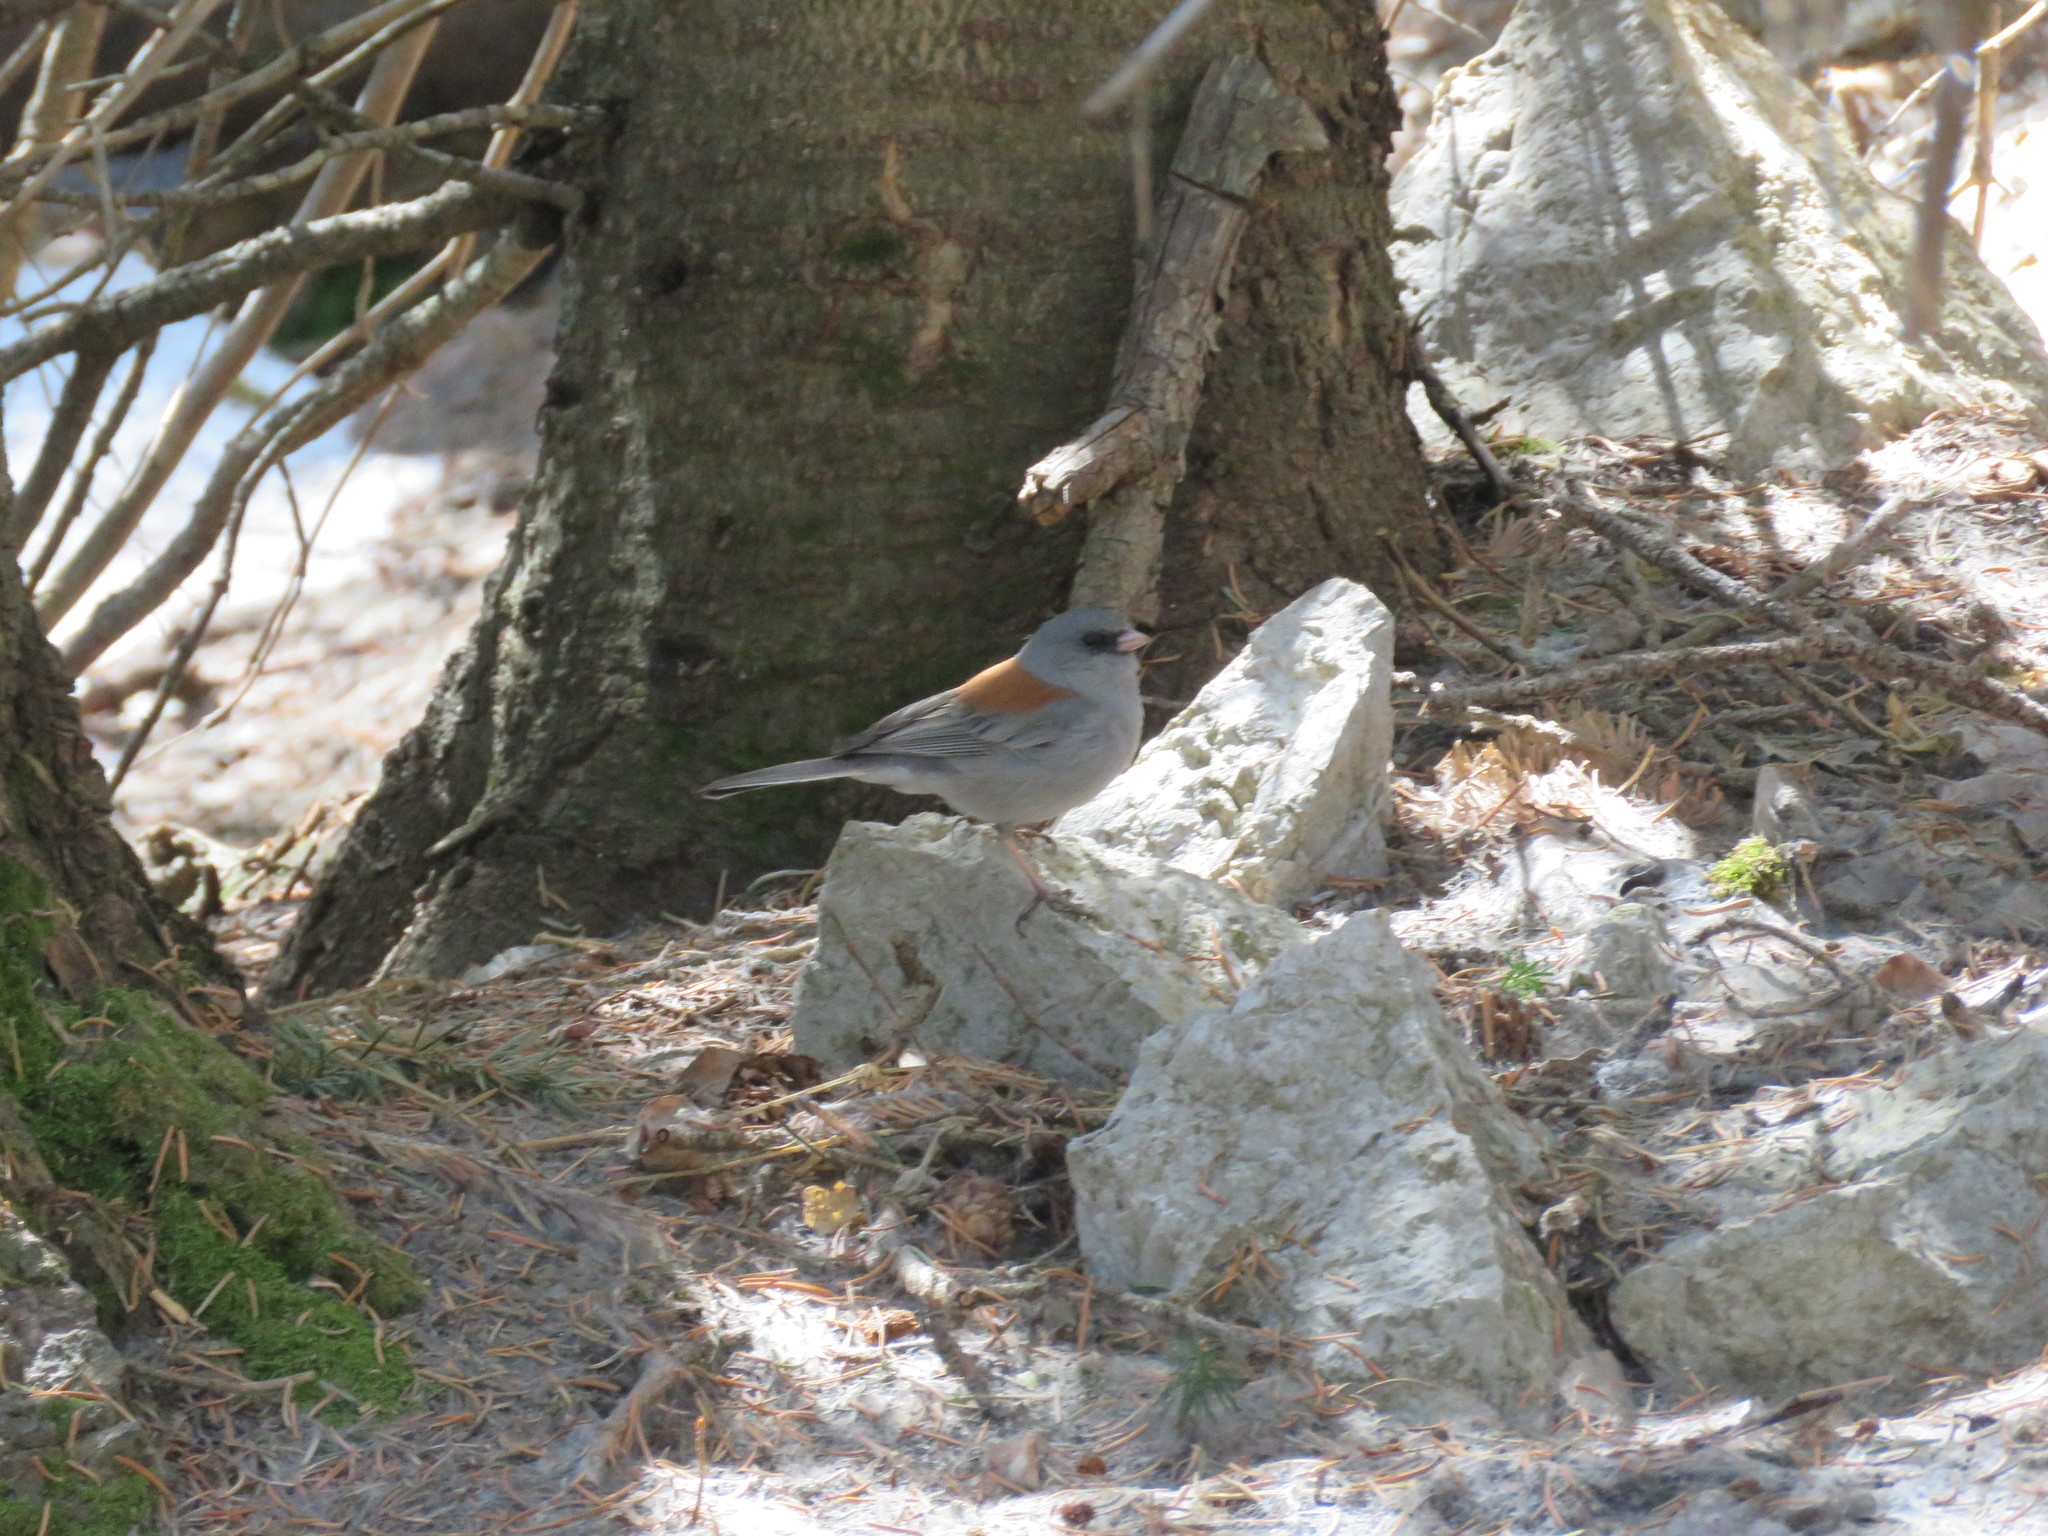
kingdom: Animalia
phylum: Chordata
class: Aves
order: Passeriformes
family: Passerellidae
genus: Junco
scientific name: Junco hyemalis
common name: Dark-eyed junco
